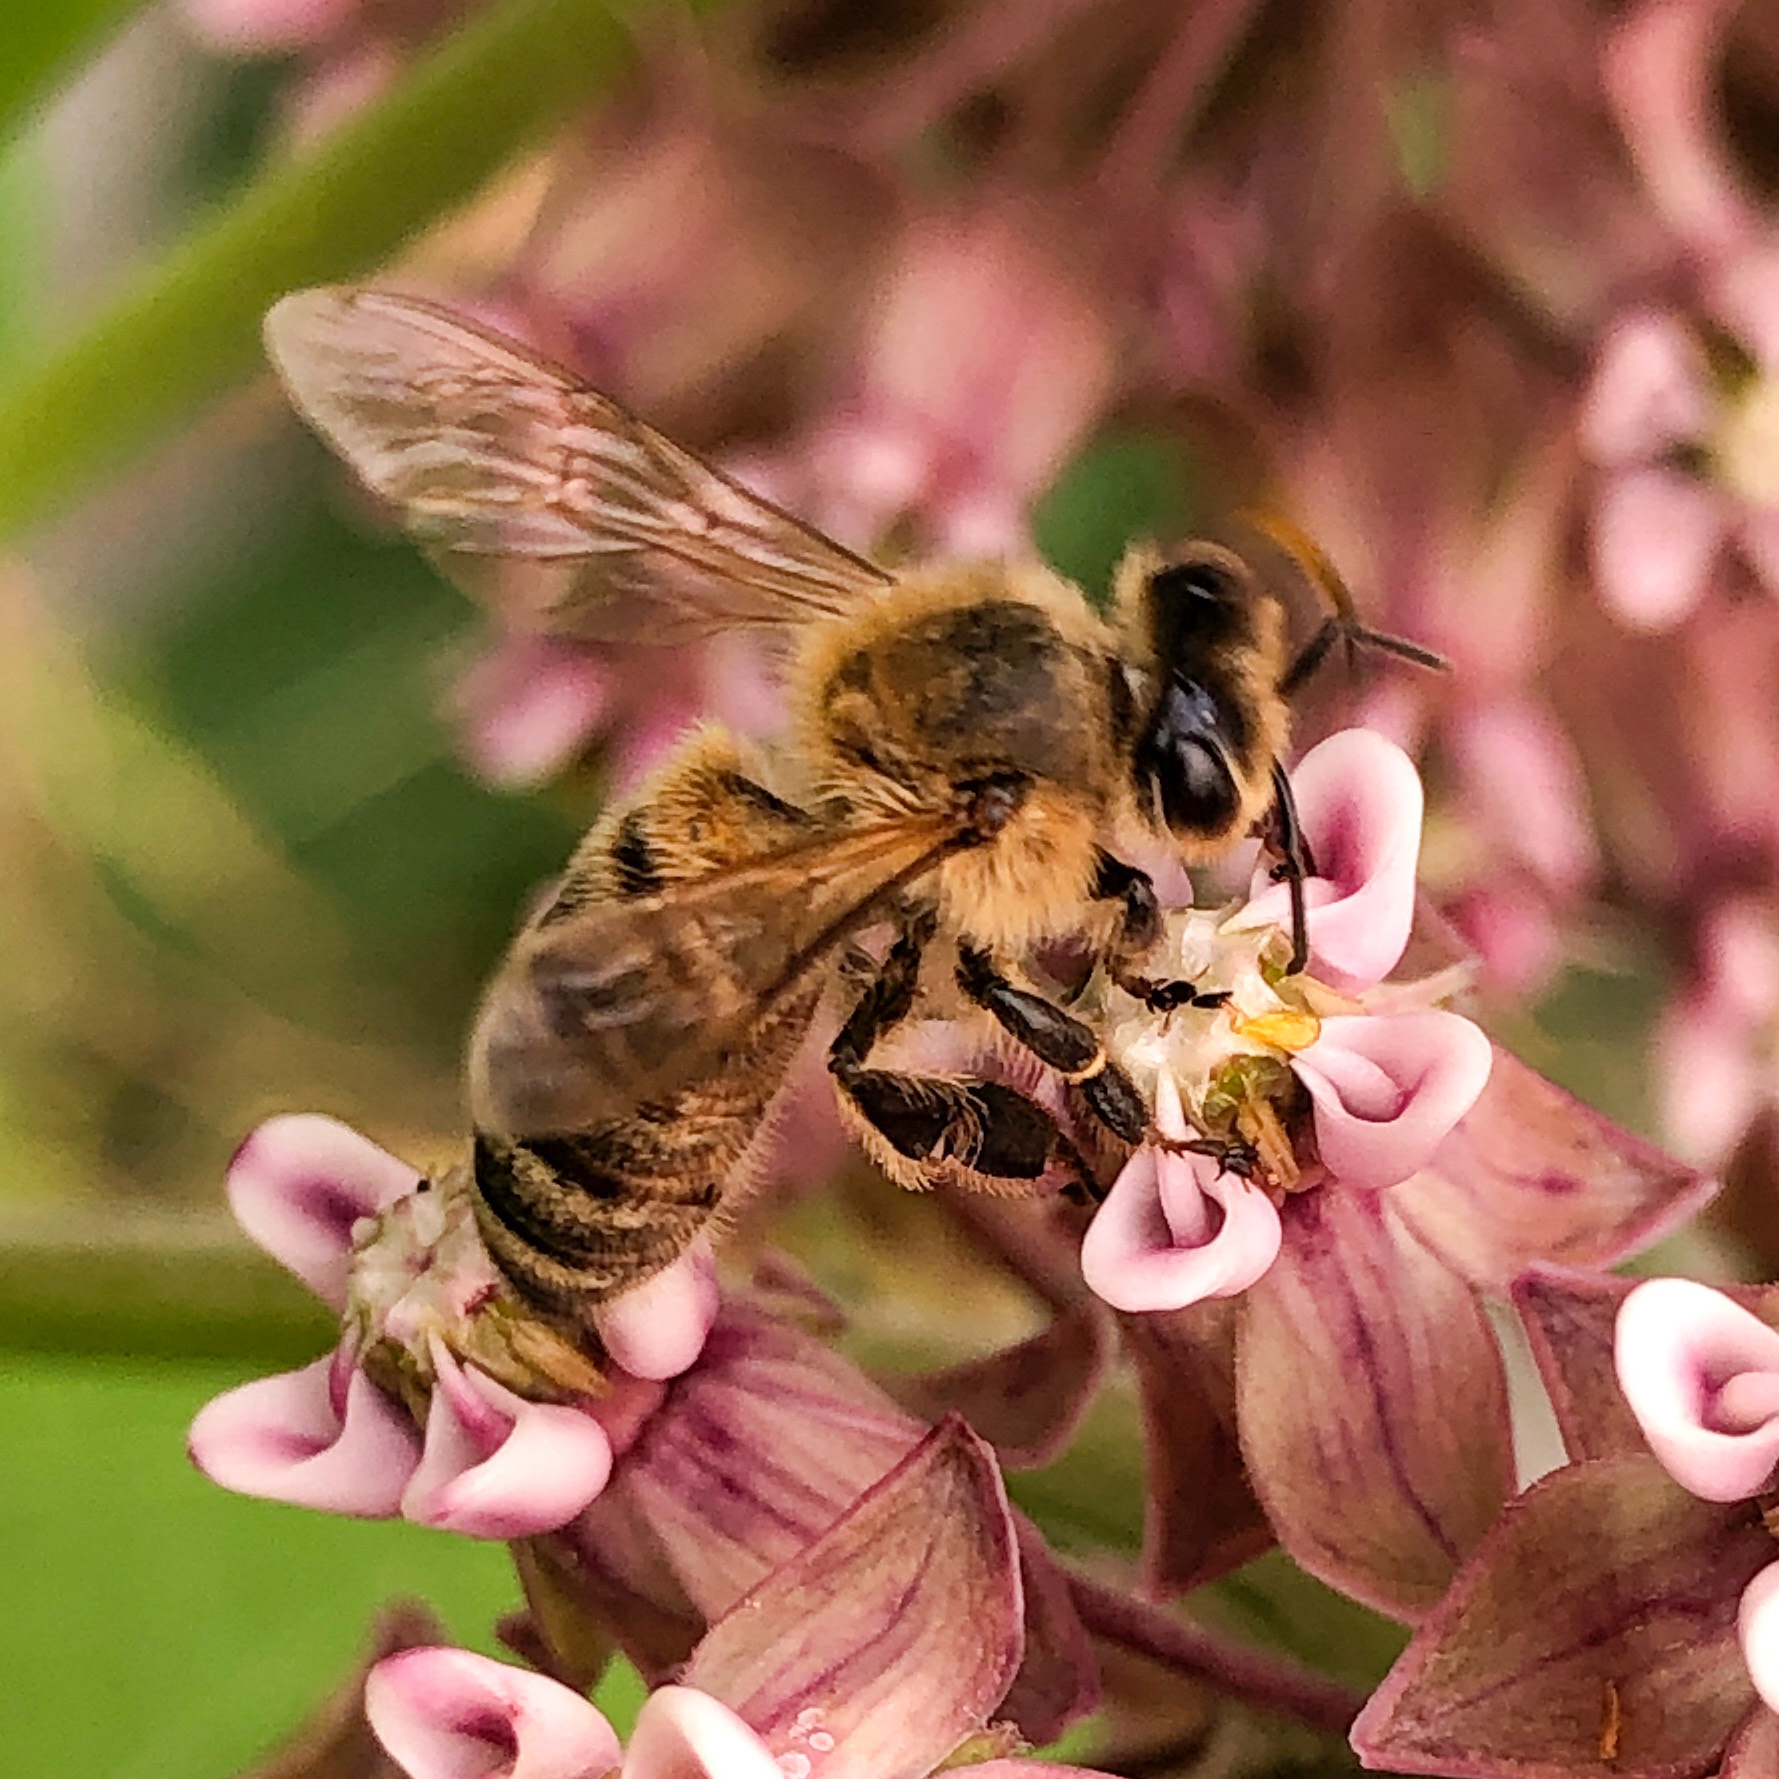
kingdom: Animalia
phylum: Arthropoda
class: Insecta
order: Hymenoptera
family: Apidae
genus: Apis
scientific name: Apis mellifera
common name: Honey bee
